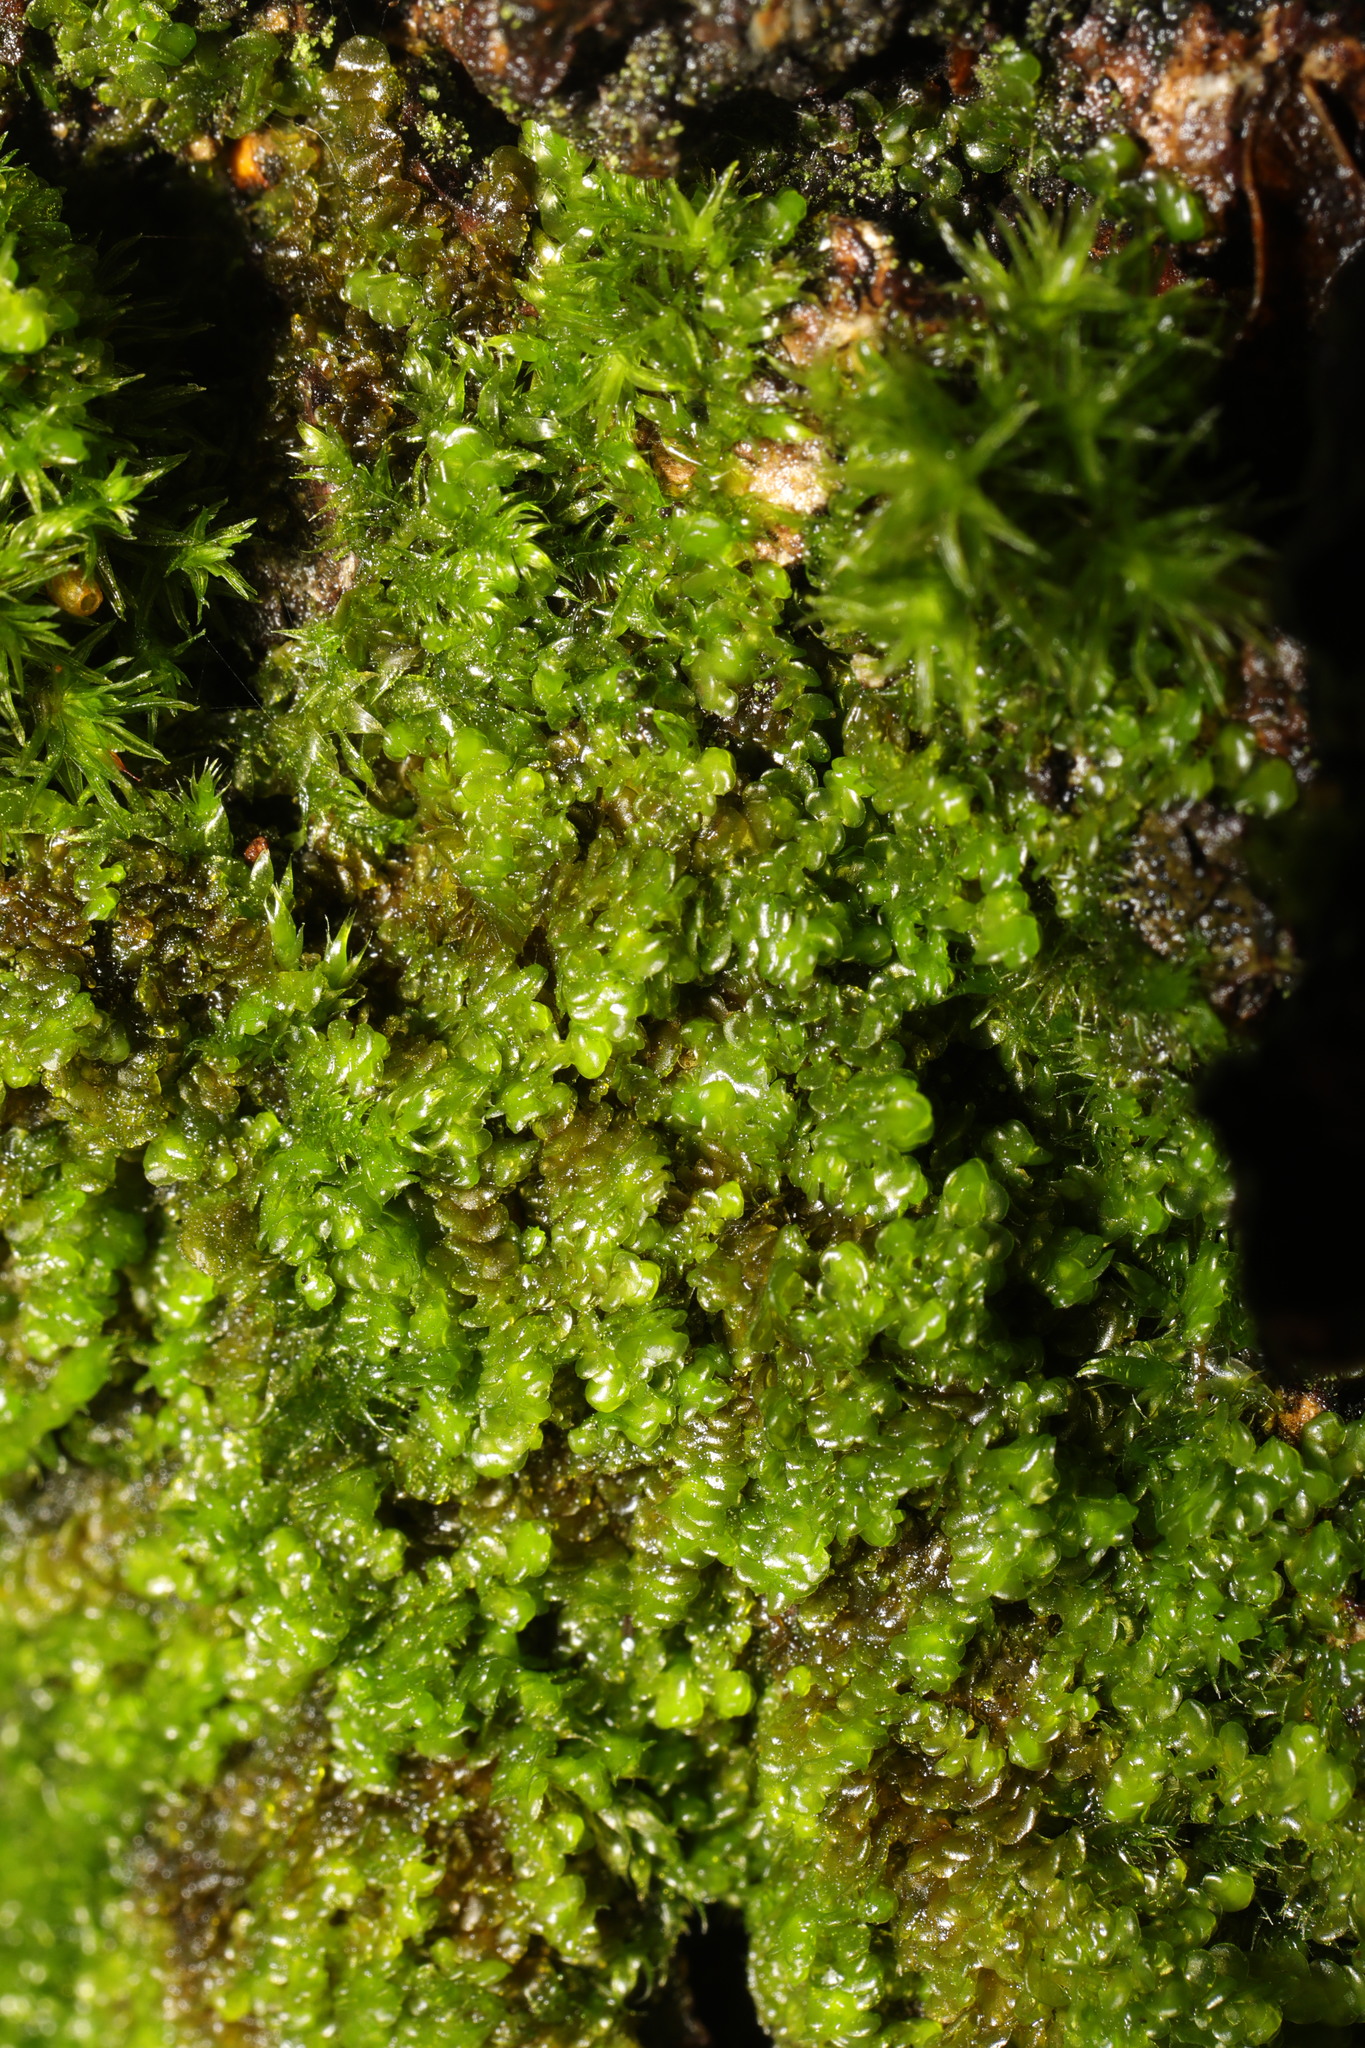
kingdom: Plantae
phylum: Marchantiophyta
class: Jungermanniopsida
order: Porellales
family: Frullaniaceae
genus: Frullania
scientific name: Frullania dilatata
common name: Dilated scalewort
